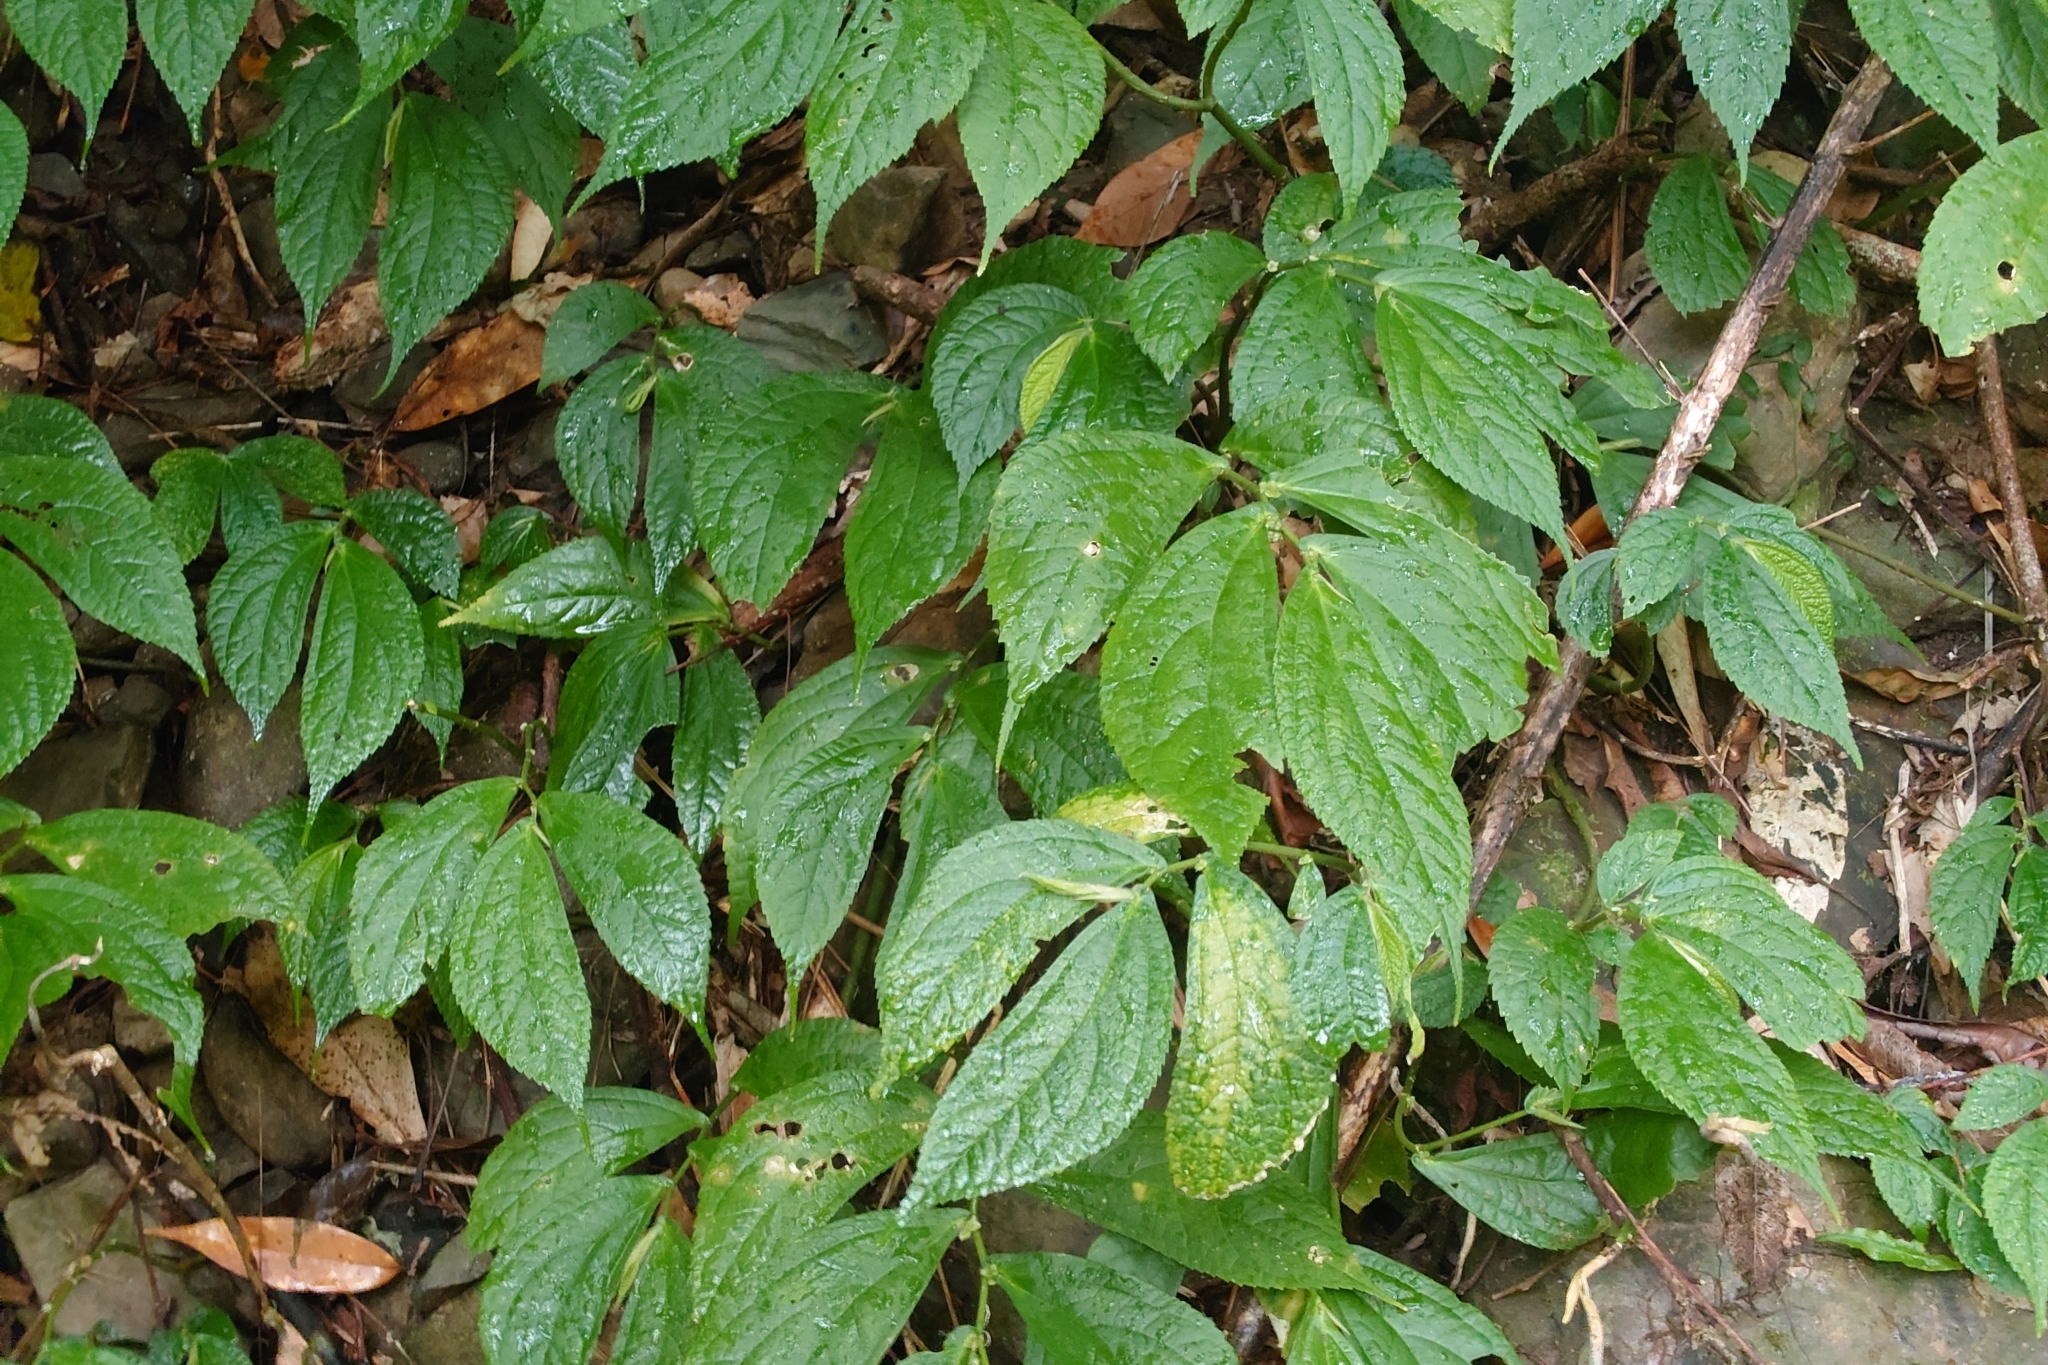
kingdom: Plantae
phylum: Tracheophyta
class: Magnoliopsida
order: Rosales
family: Urticaceae
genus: Elatostema
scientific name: Elatostema platyphyllum
